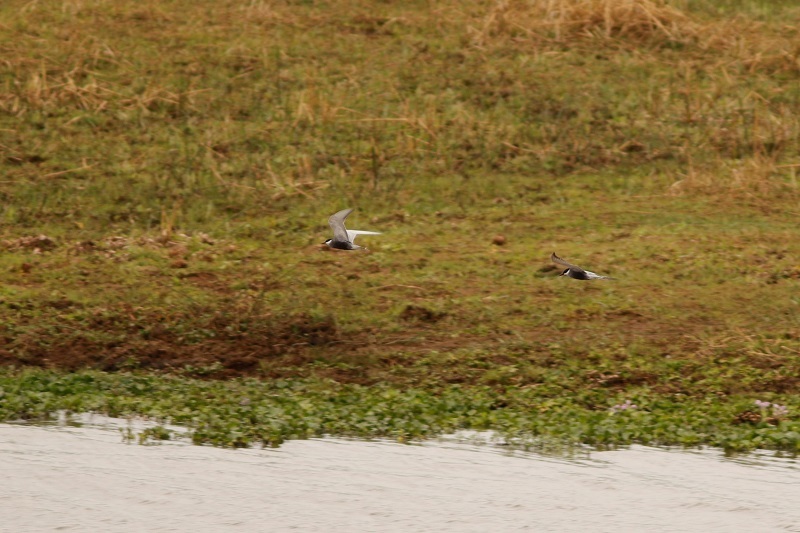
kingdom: Animalia
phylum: Chordata
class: Aves
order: Charadriiformes
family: Laridae
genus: Chlidonias
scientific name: Chlidonias hybrida
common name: Whiskered tern
